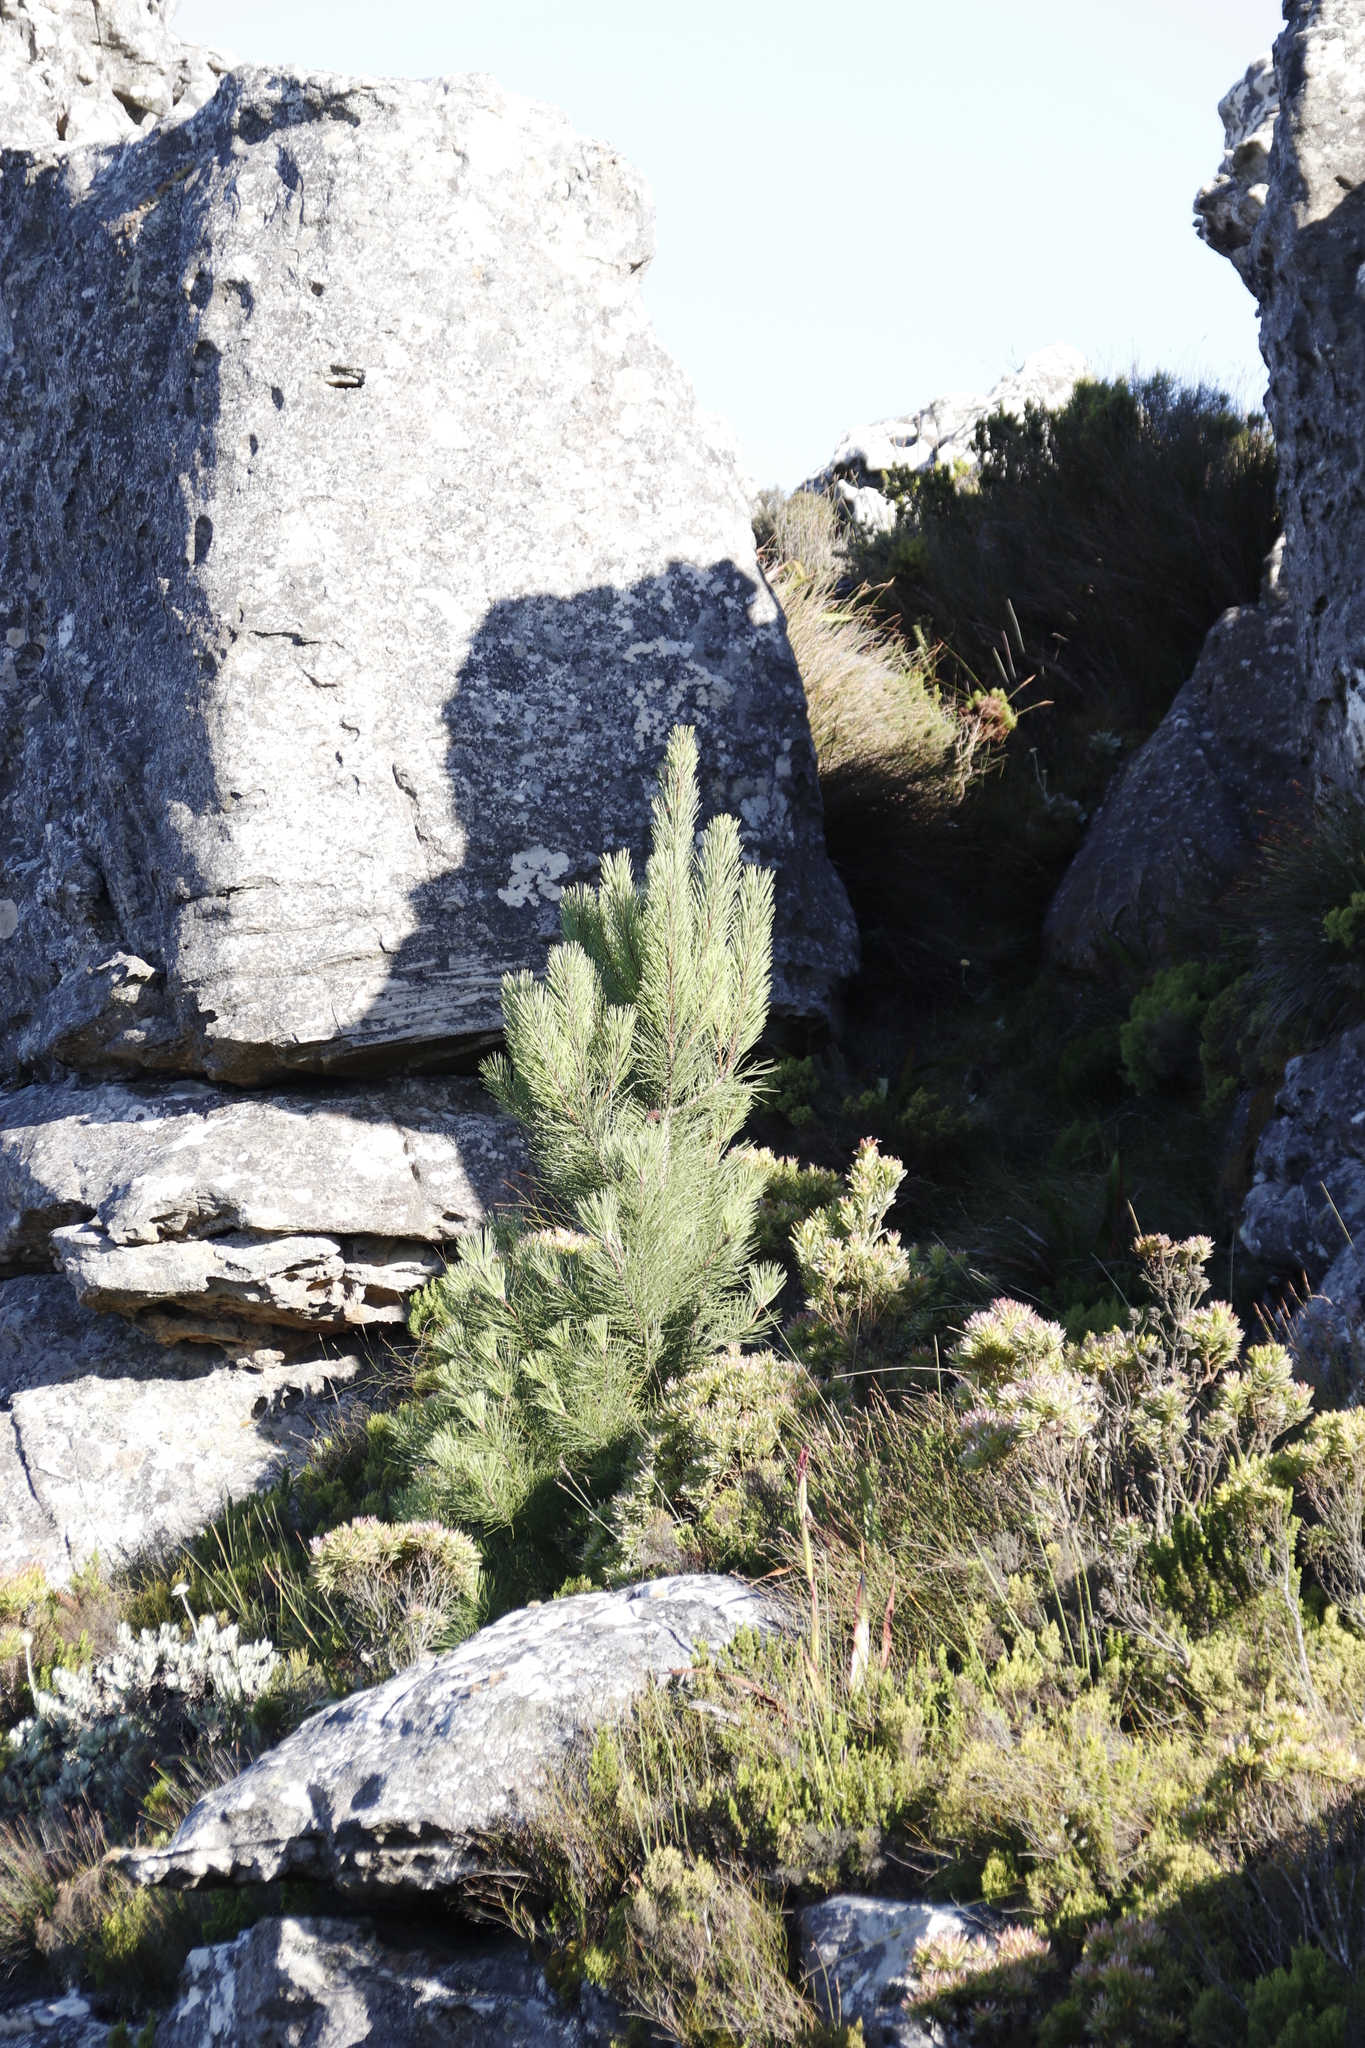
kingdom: Plantae
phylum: Tracheophyta
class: Pinopsida
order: Pinales
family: Pinaceae
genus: Pinus
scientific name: Pinus radiata
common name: Monterey pine
